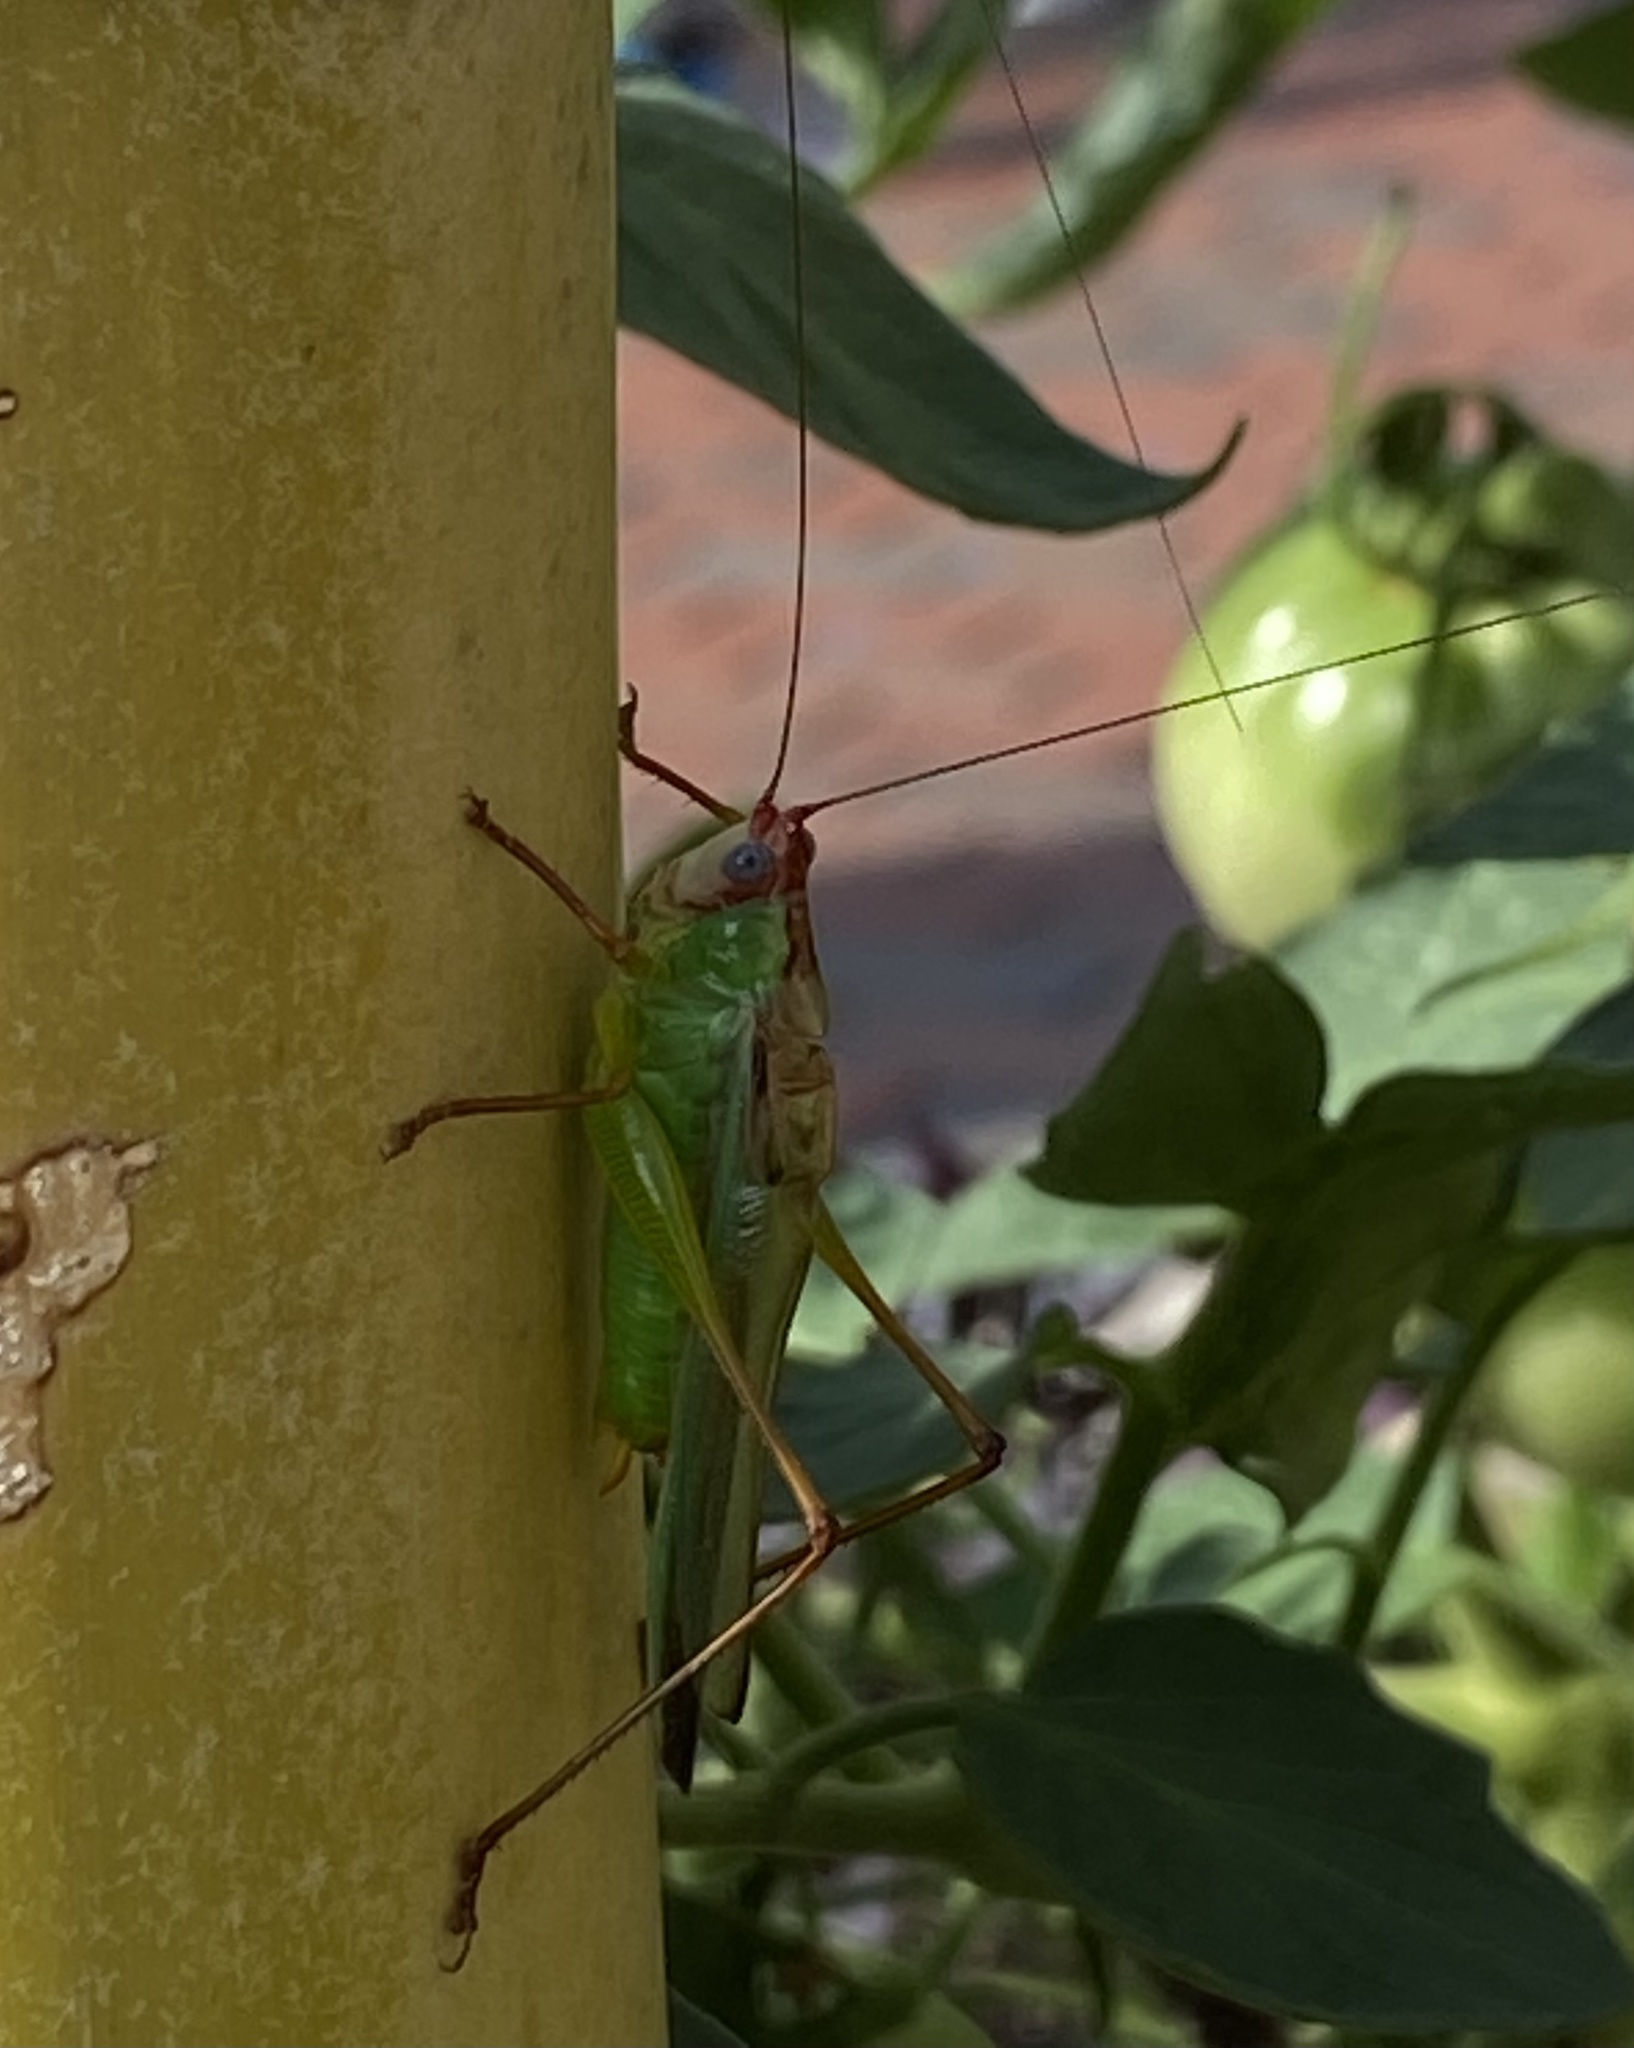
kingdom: Animalia
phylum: Arthropoda
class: Insecta
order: Orthoptera
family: Tettigoniidae
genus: Orchelimum
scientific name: Orchelimum pulchellum
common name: Handsome meadow katydid
